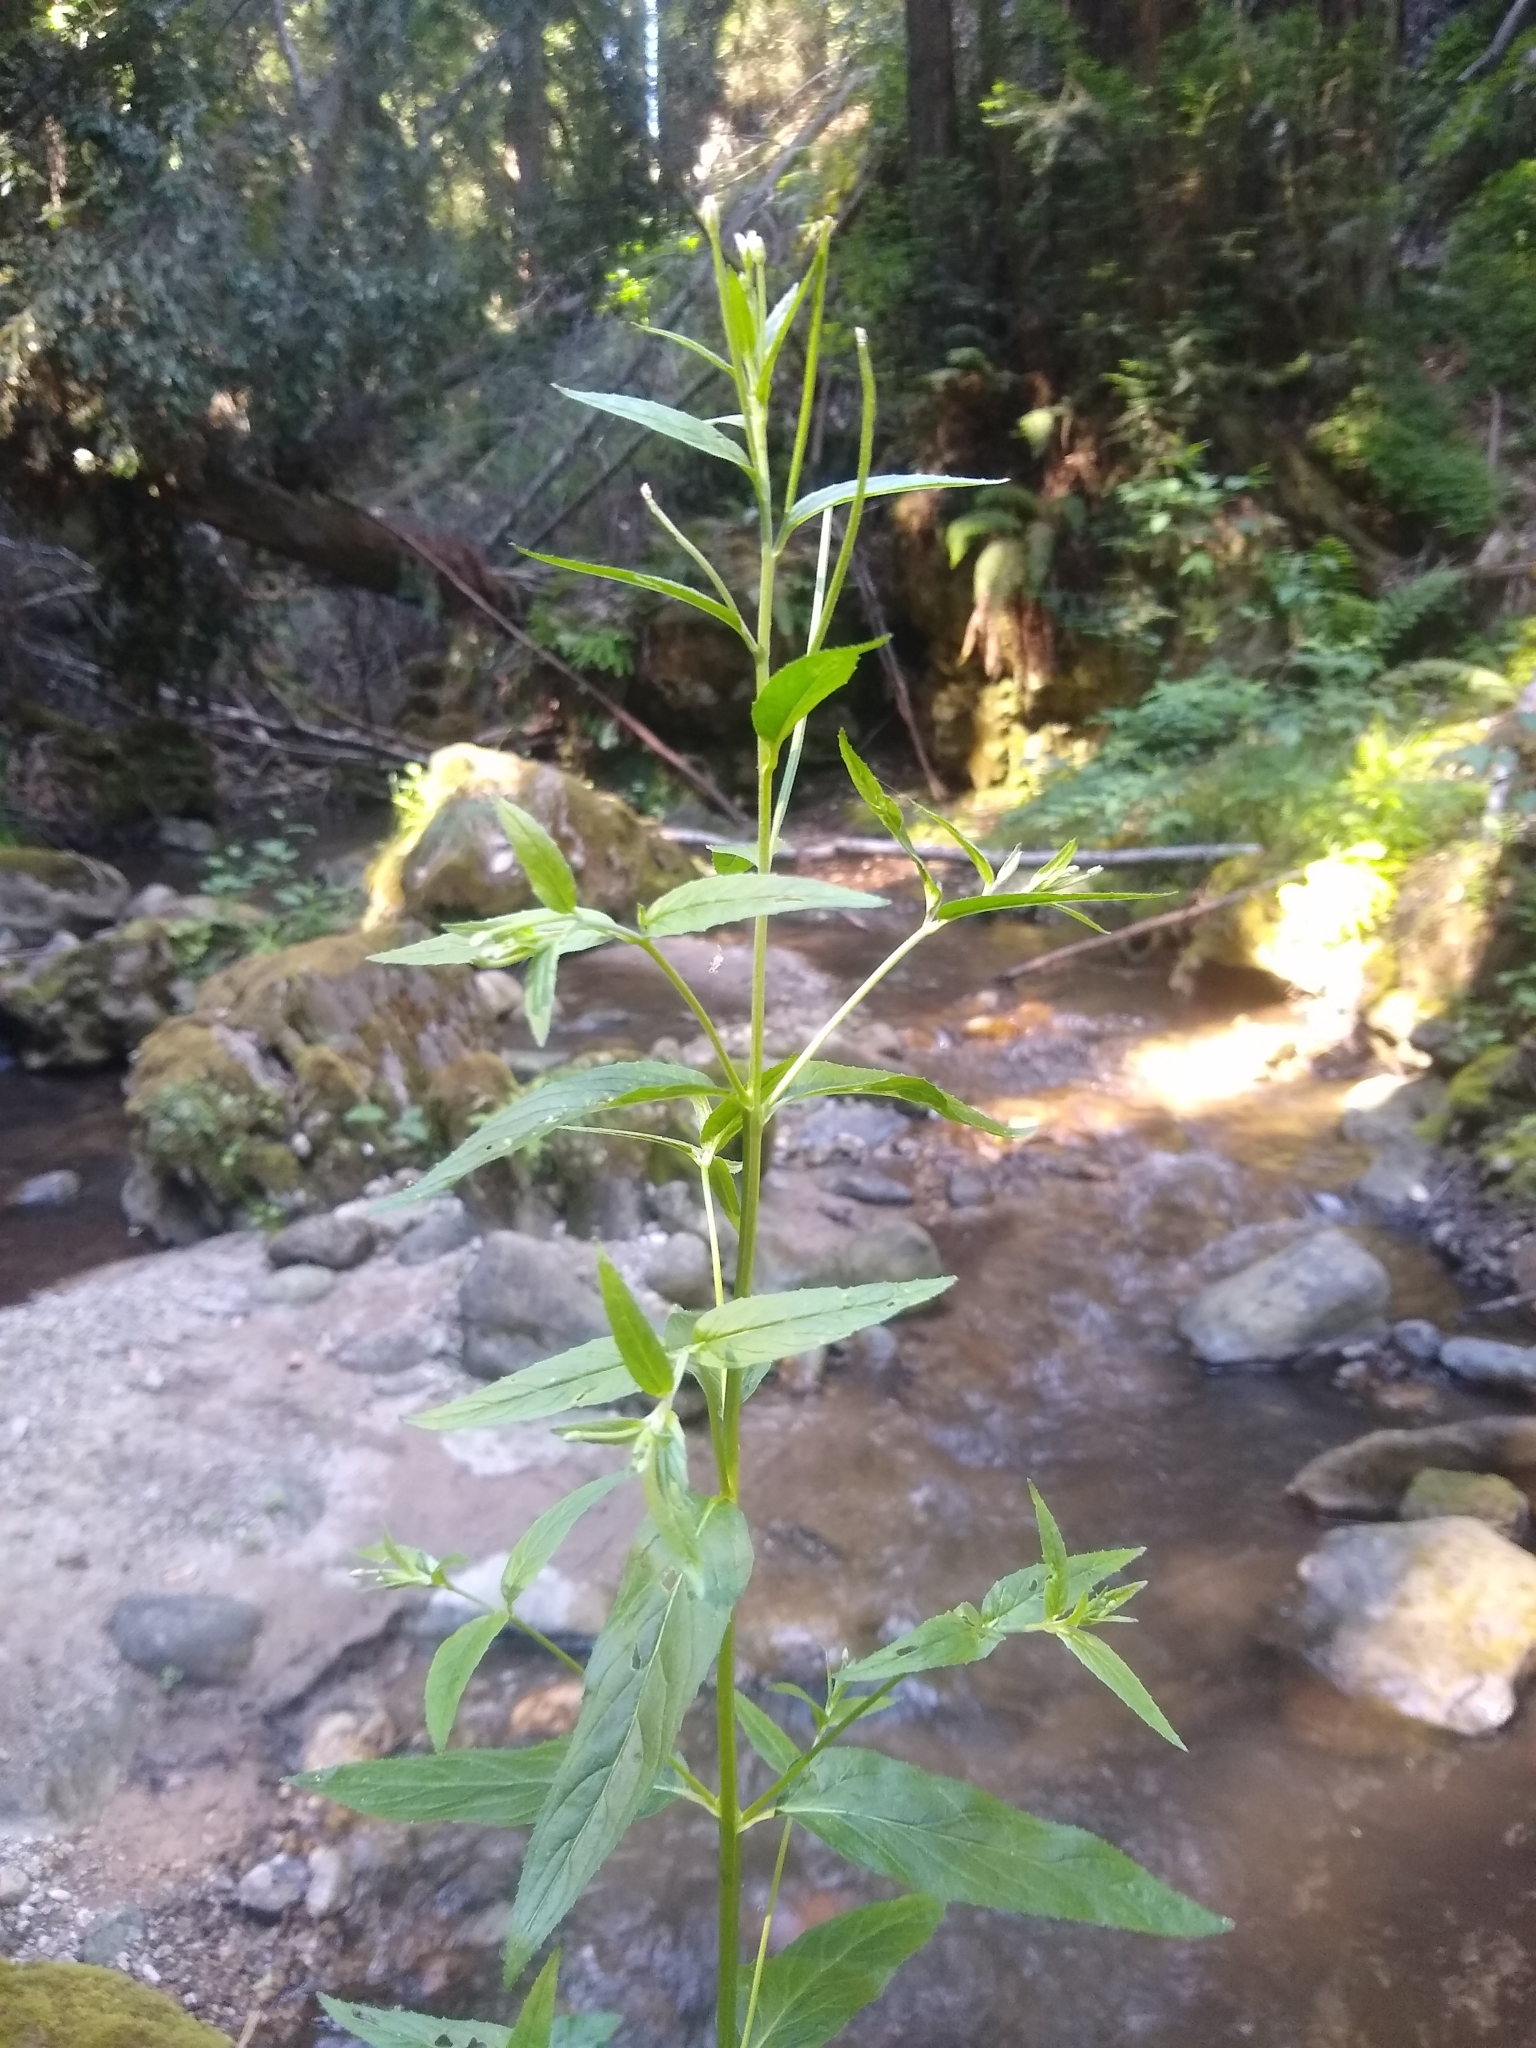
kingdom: Plantae
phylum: Tracheophyta
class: Magnoliopsida
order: Myrtales
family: Onagraceae
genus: Epilobium
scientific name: Epilobium ciliatum
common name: American willowherb
